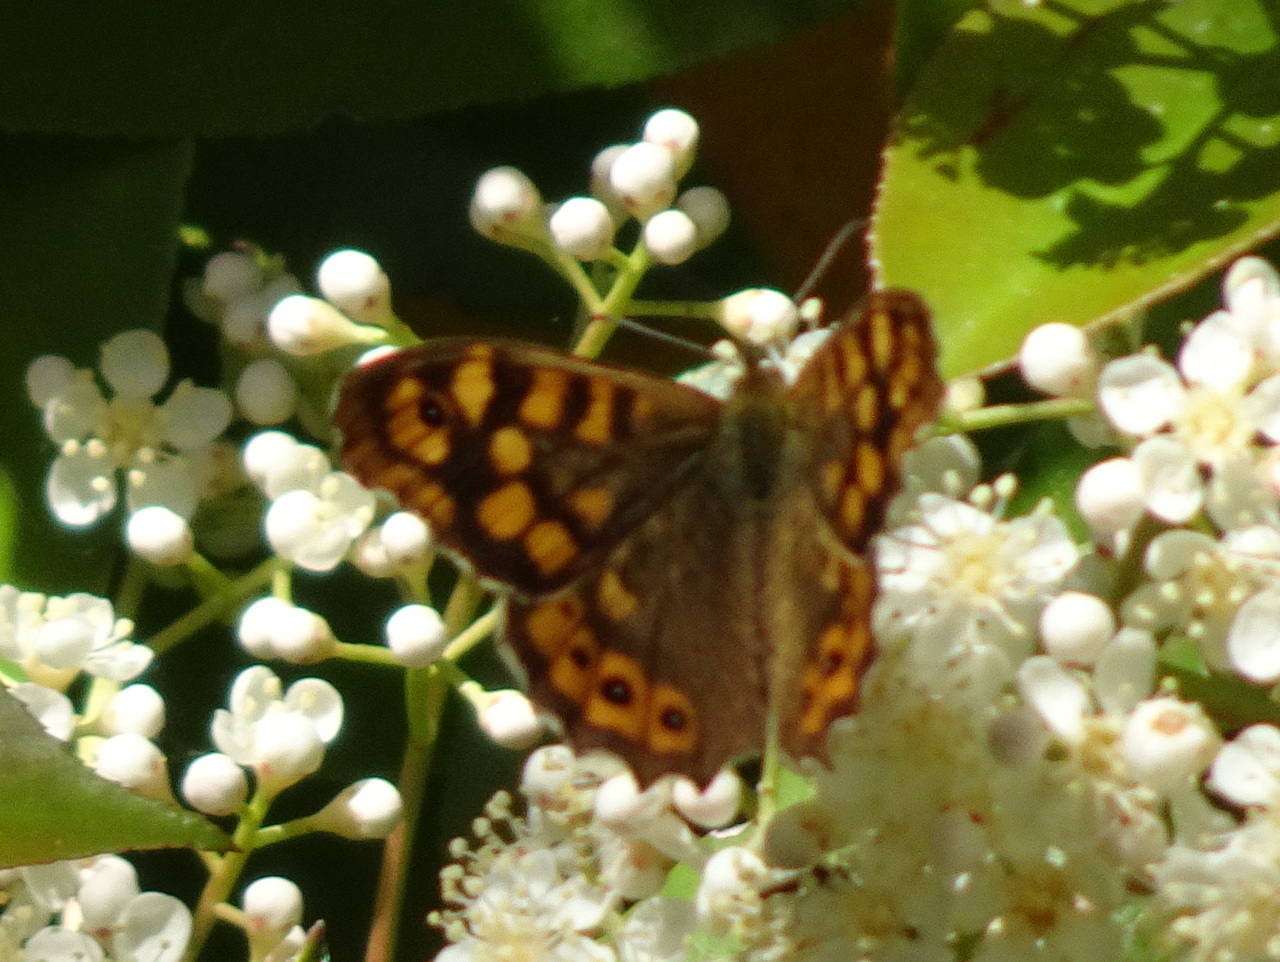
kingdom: Animalia
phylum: Arthropoda
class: Insecta
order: Lepidoptera
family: Nymphalidae
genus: Pararge
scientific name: Pararge aegeria
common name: Speckled wood
